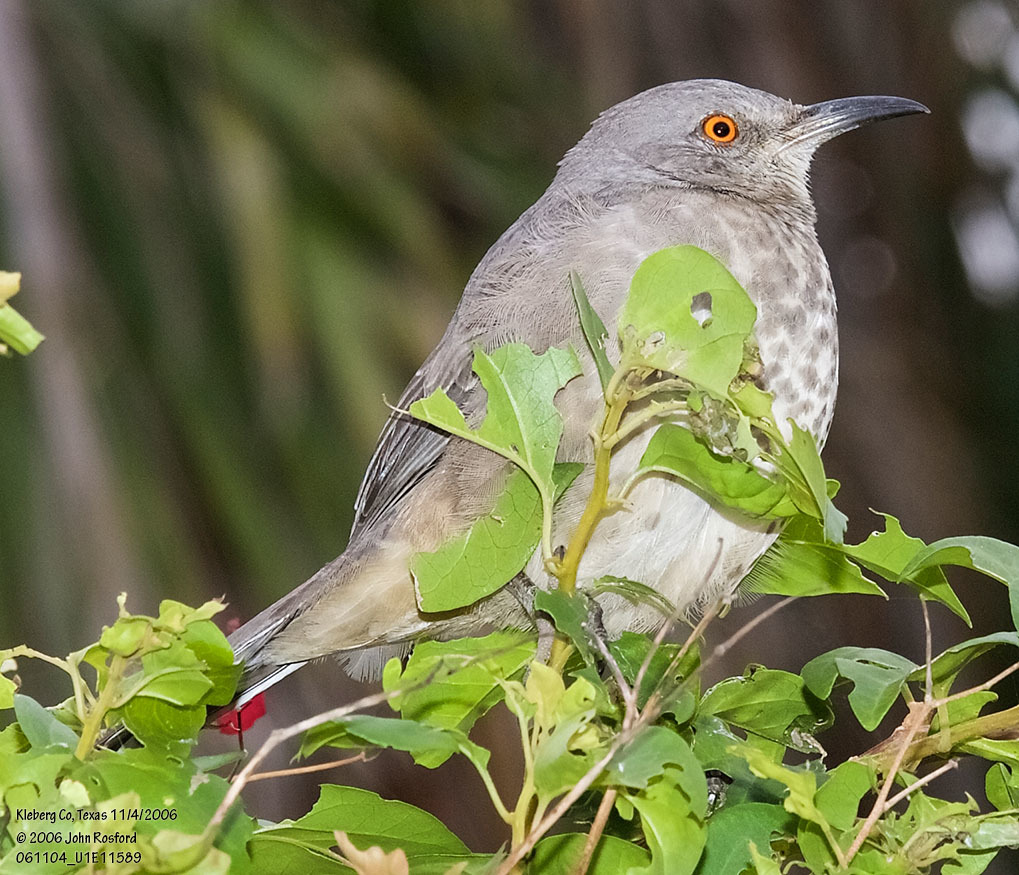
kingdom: Animalia
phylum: Chordata
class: Aves
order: Passeriformes
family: Mimidae
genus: Toxostoma
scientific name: Toxostoma curvirostre
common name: Curve-billed thrasher
